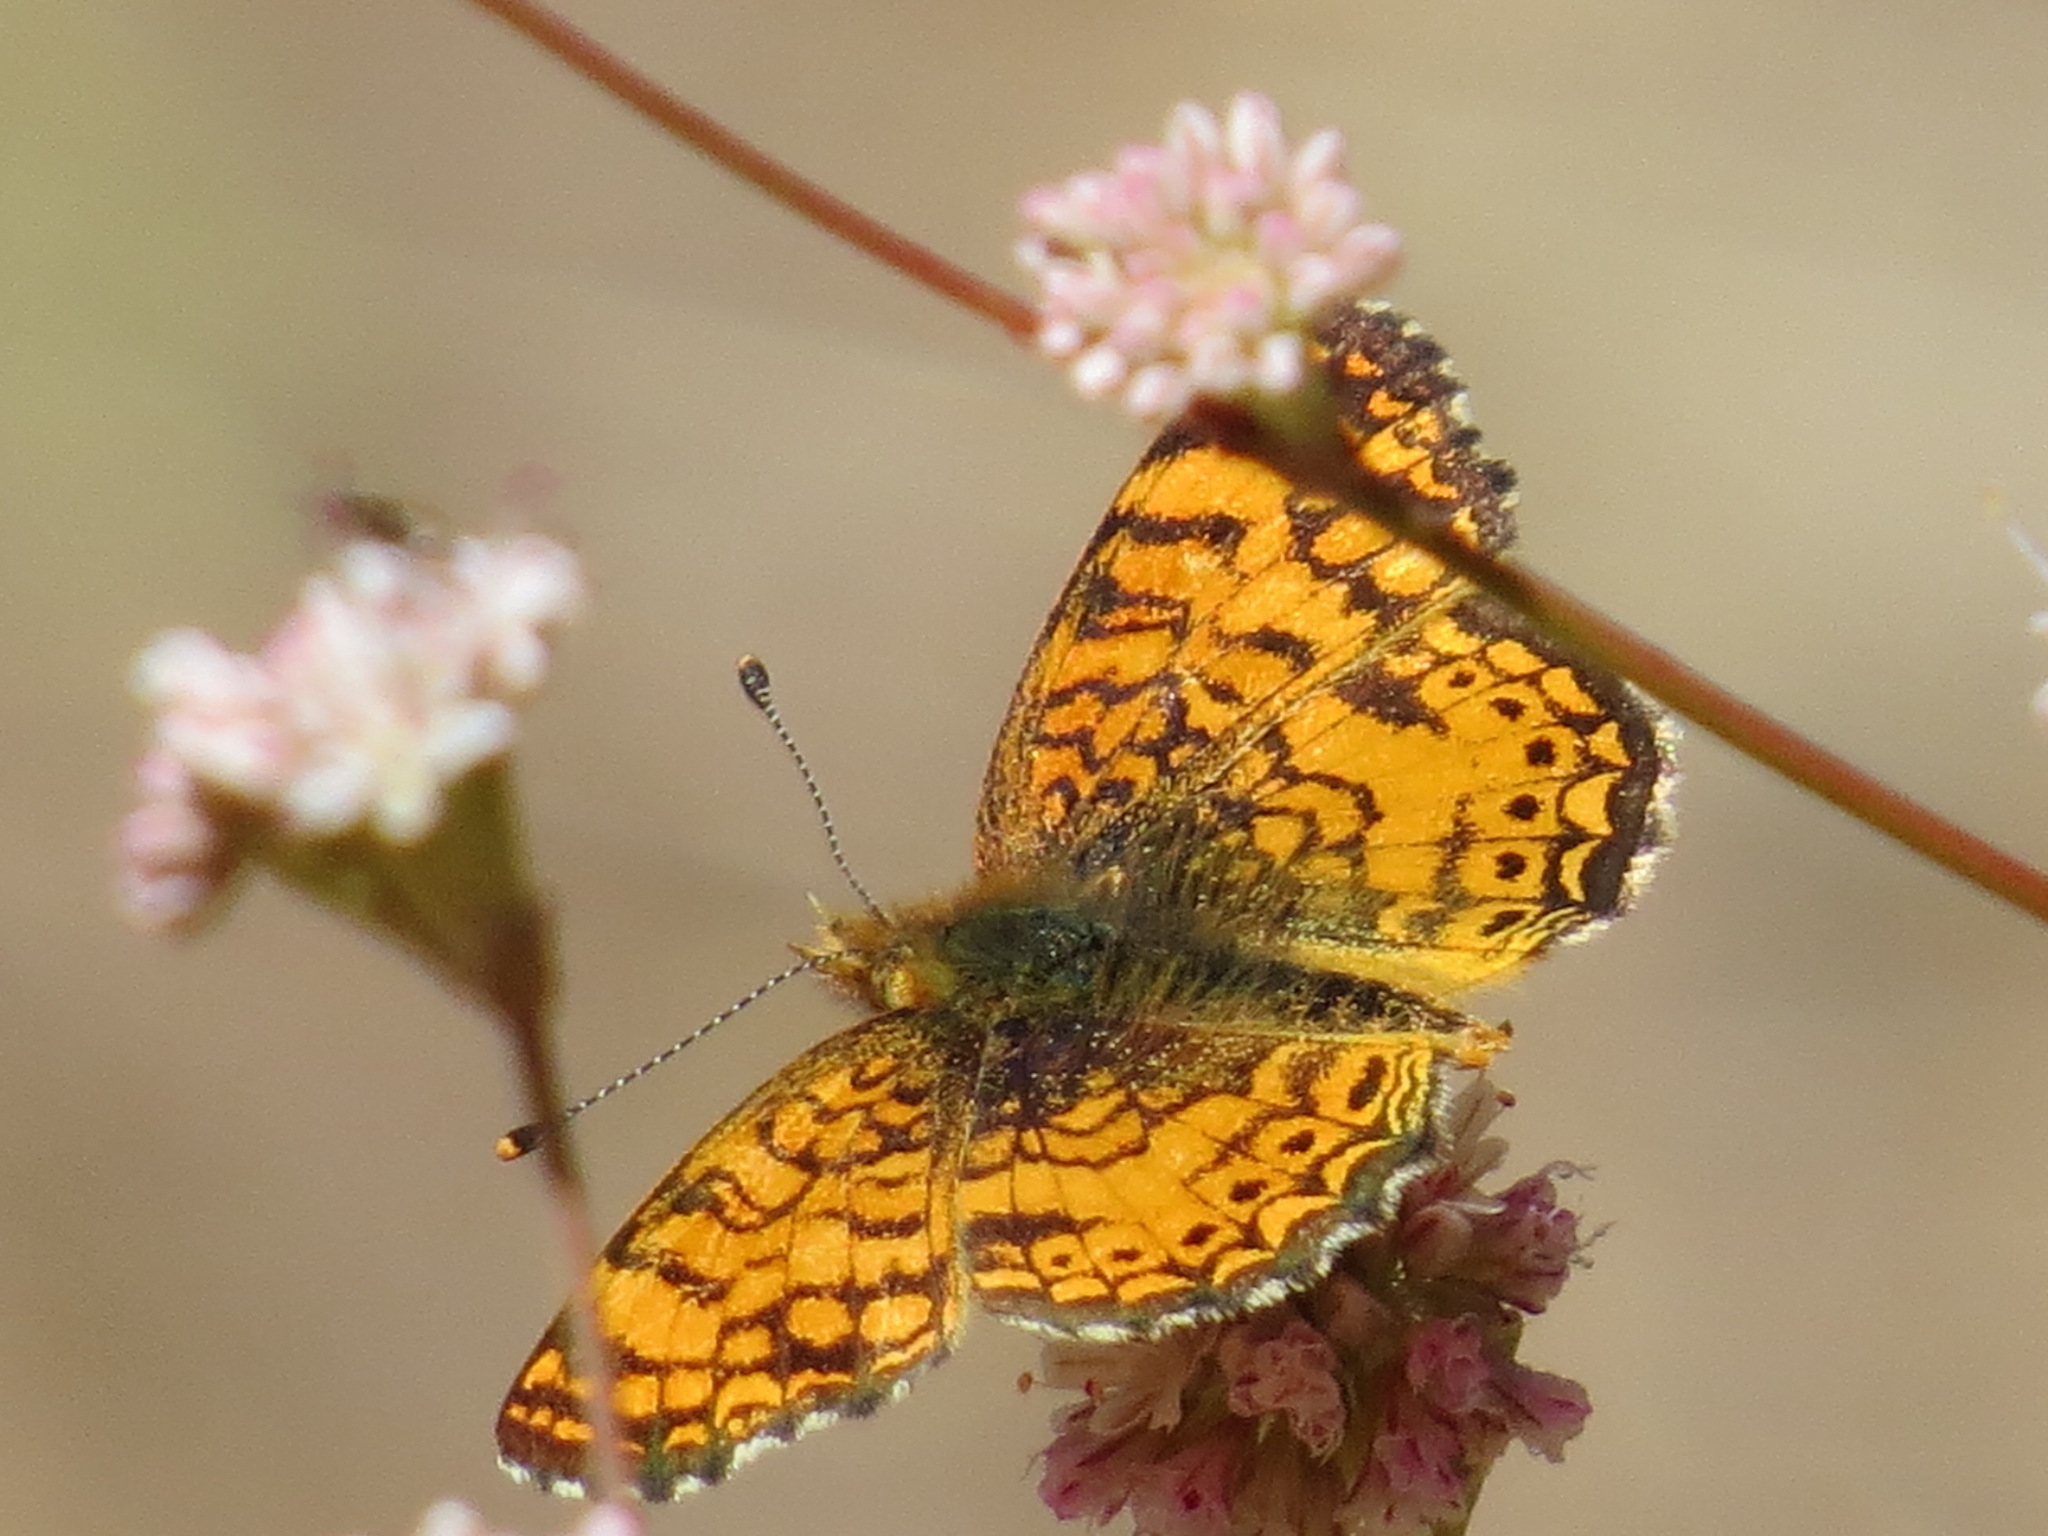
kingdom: Animalia
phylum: Arthropoda
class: Insecta
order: Lepidoptera
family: Nymphalidae
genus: Eresia
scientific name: Eresia aveyrona
